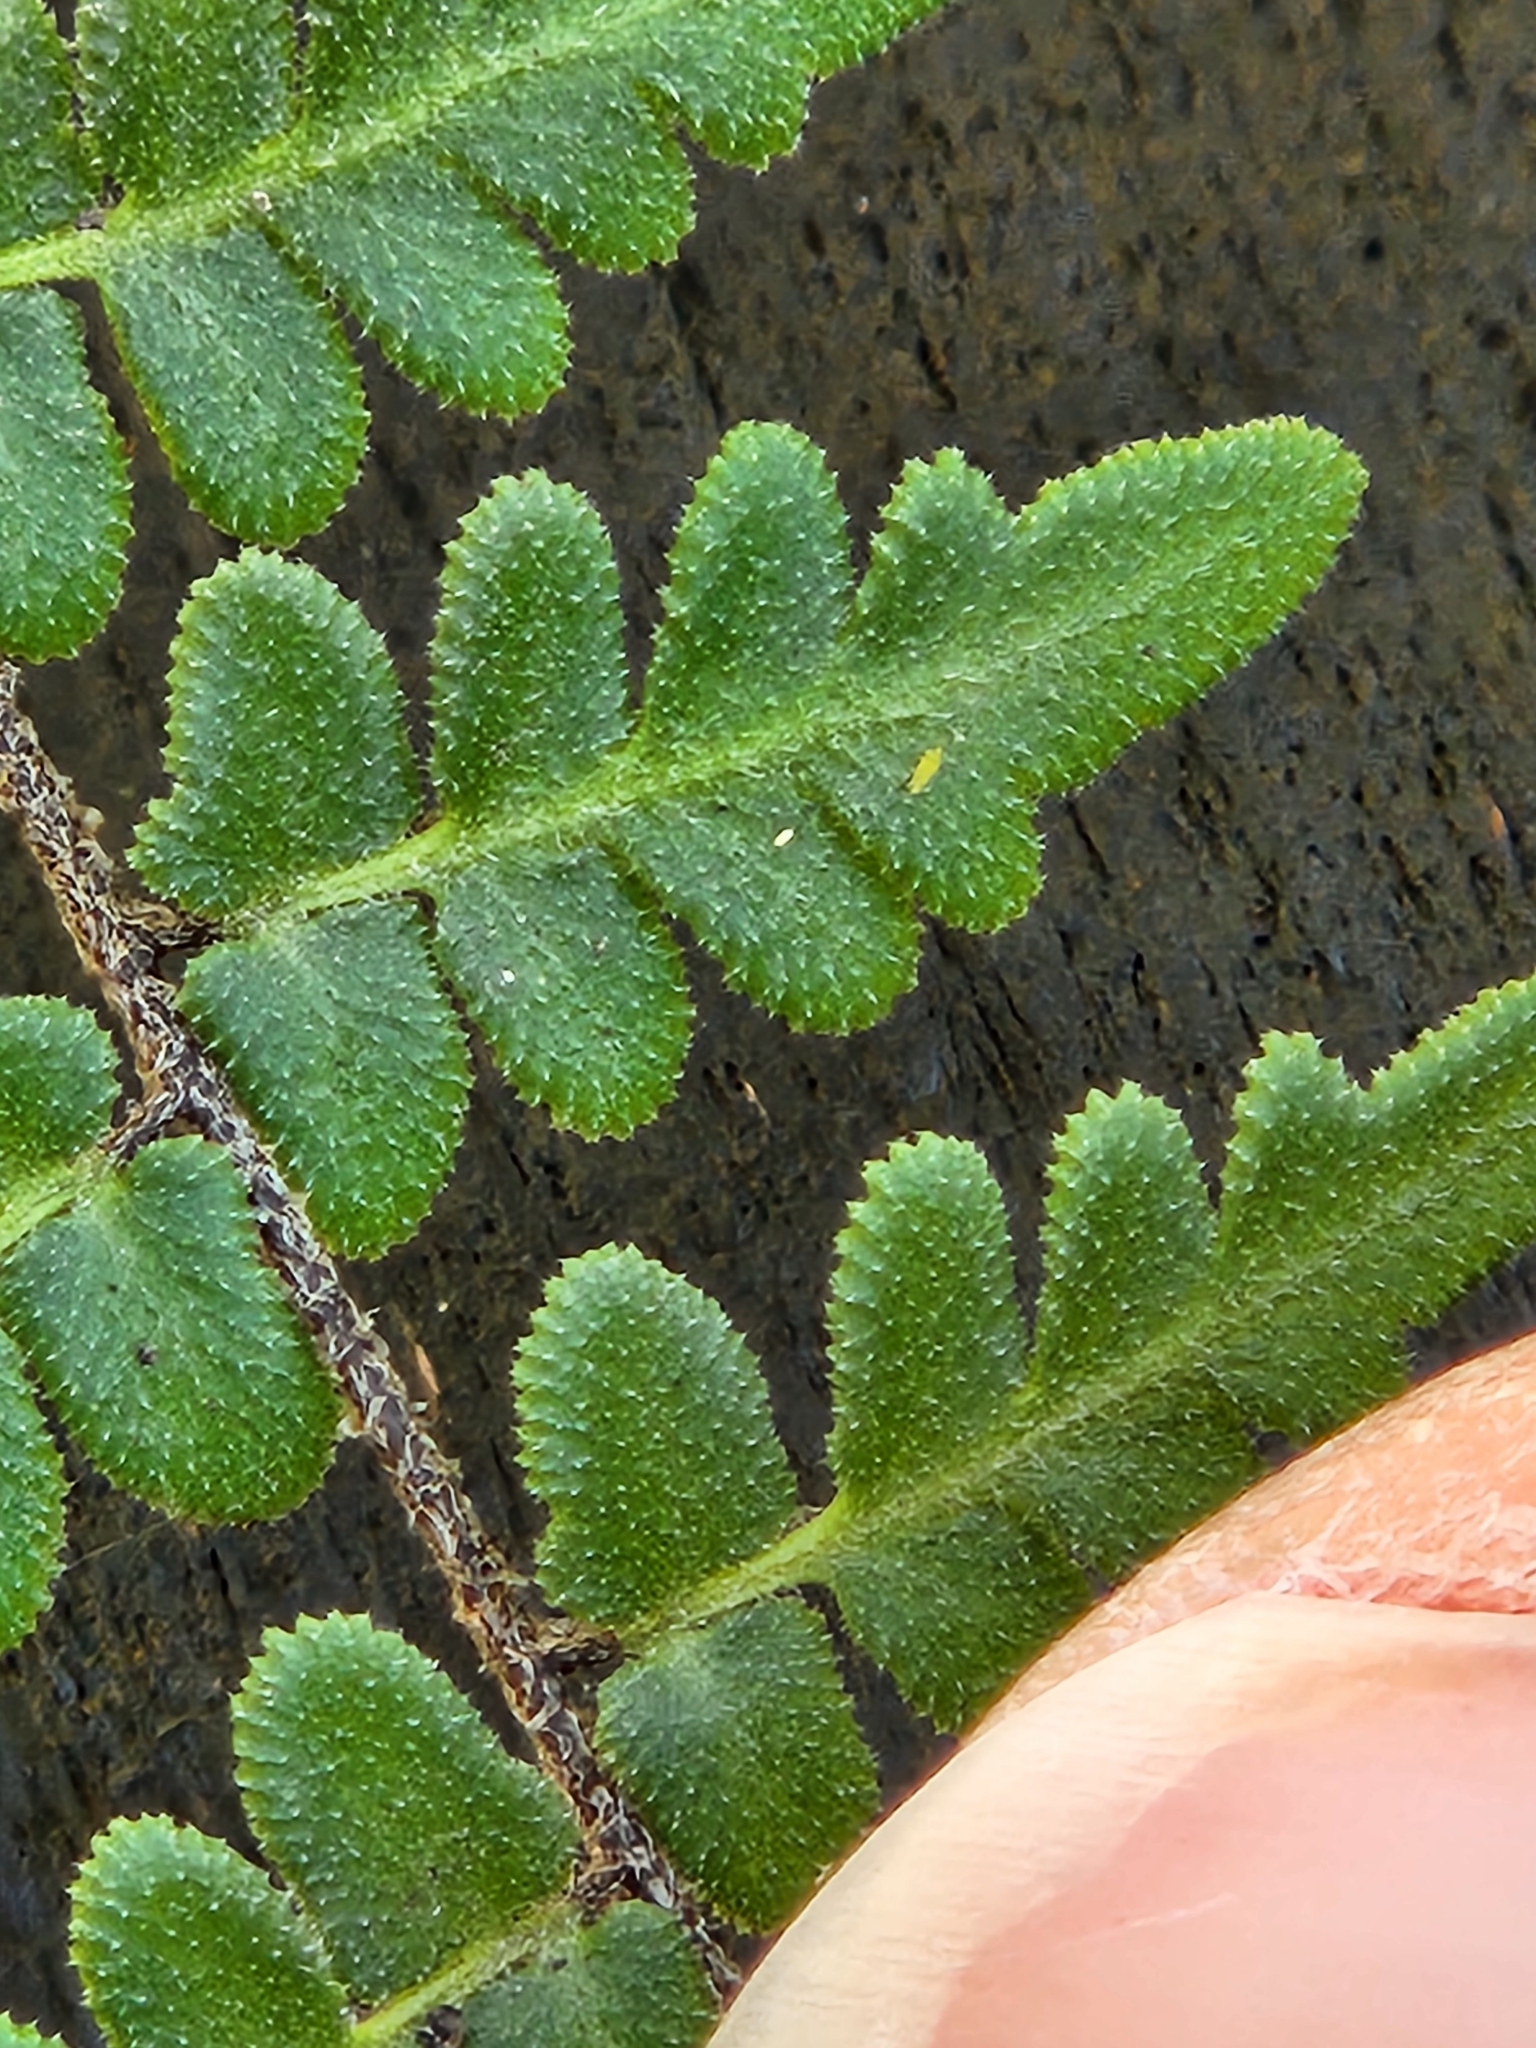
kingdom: Plantae
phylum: Tracheophyta
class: Polypodiopsida
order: Polypodiales
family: Pteridaceae
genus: Myriopteris
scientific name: Myriopteris scabra
